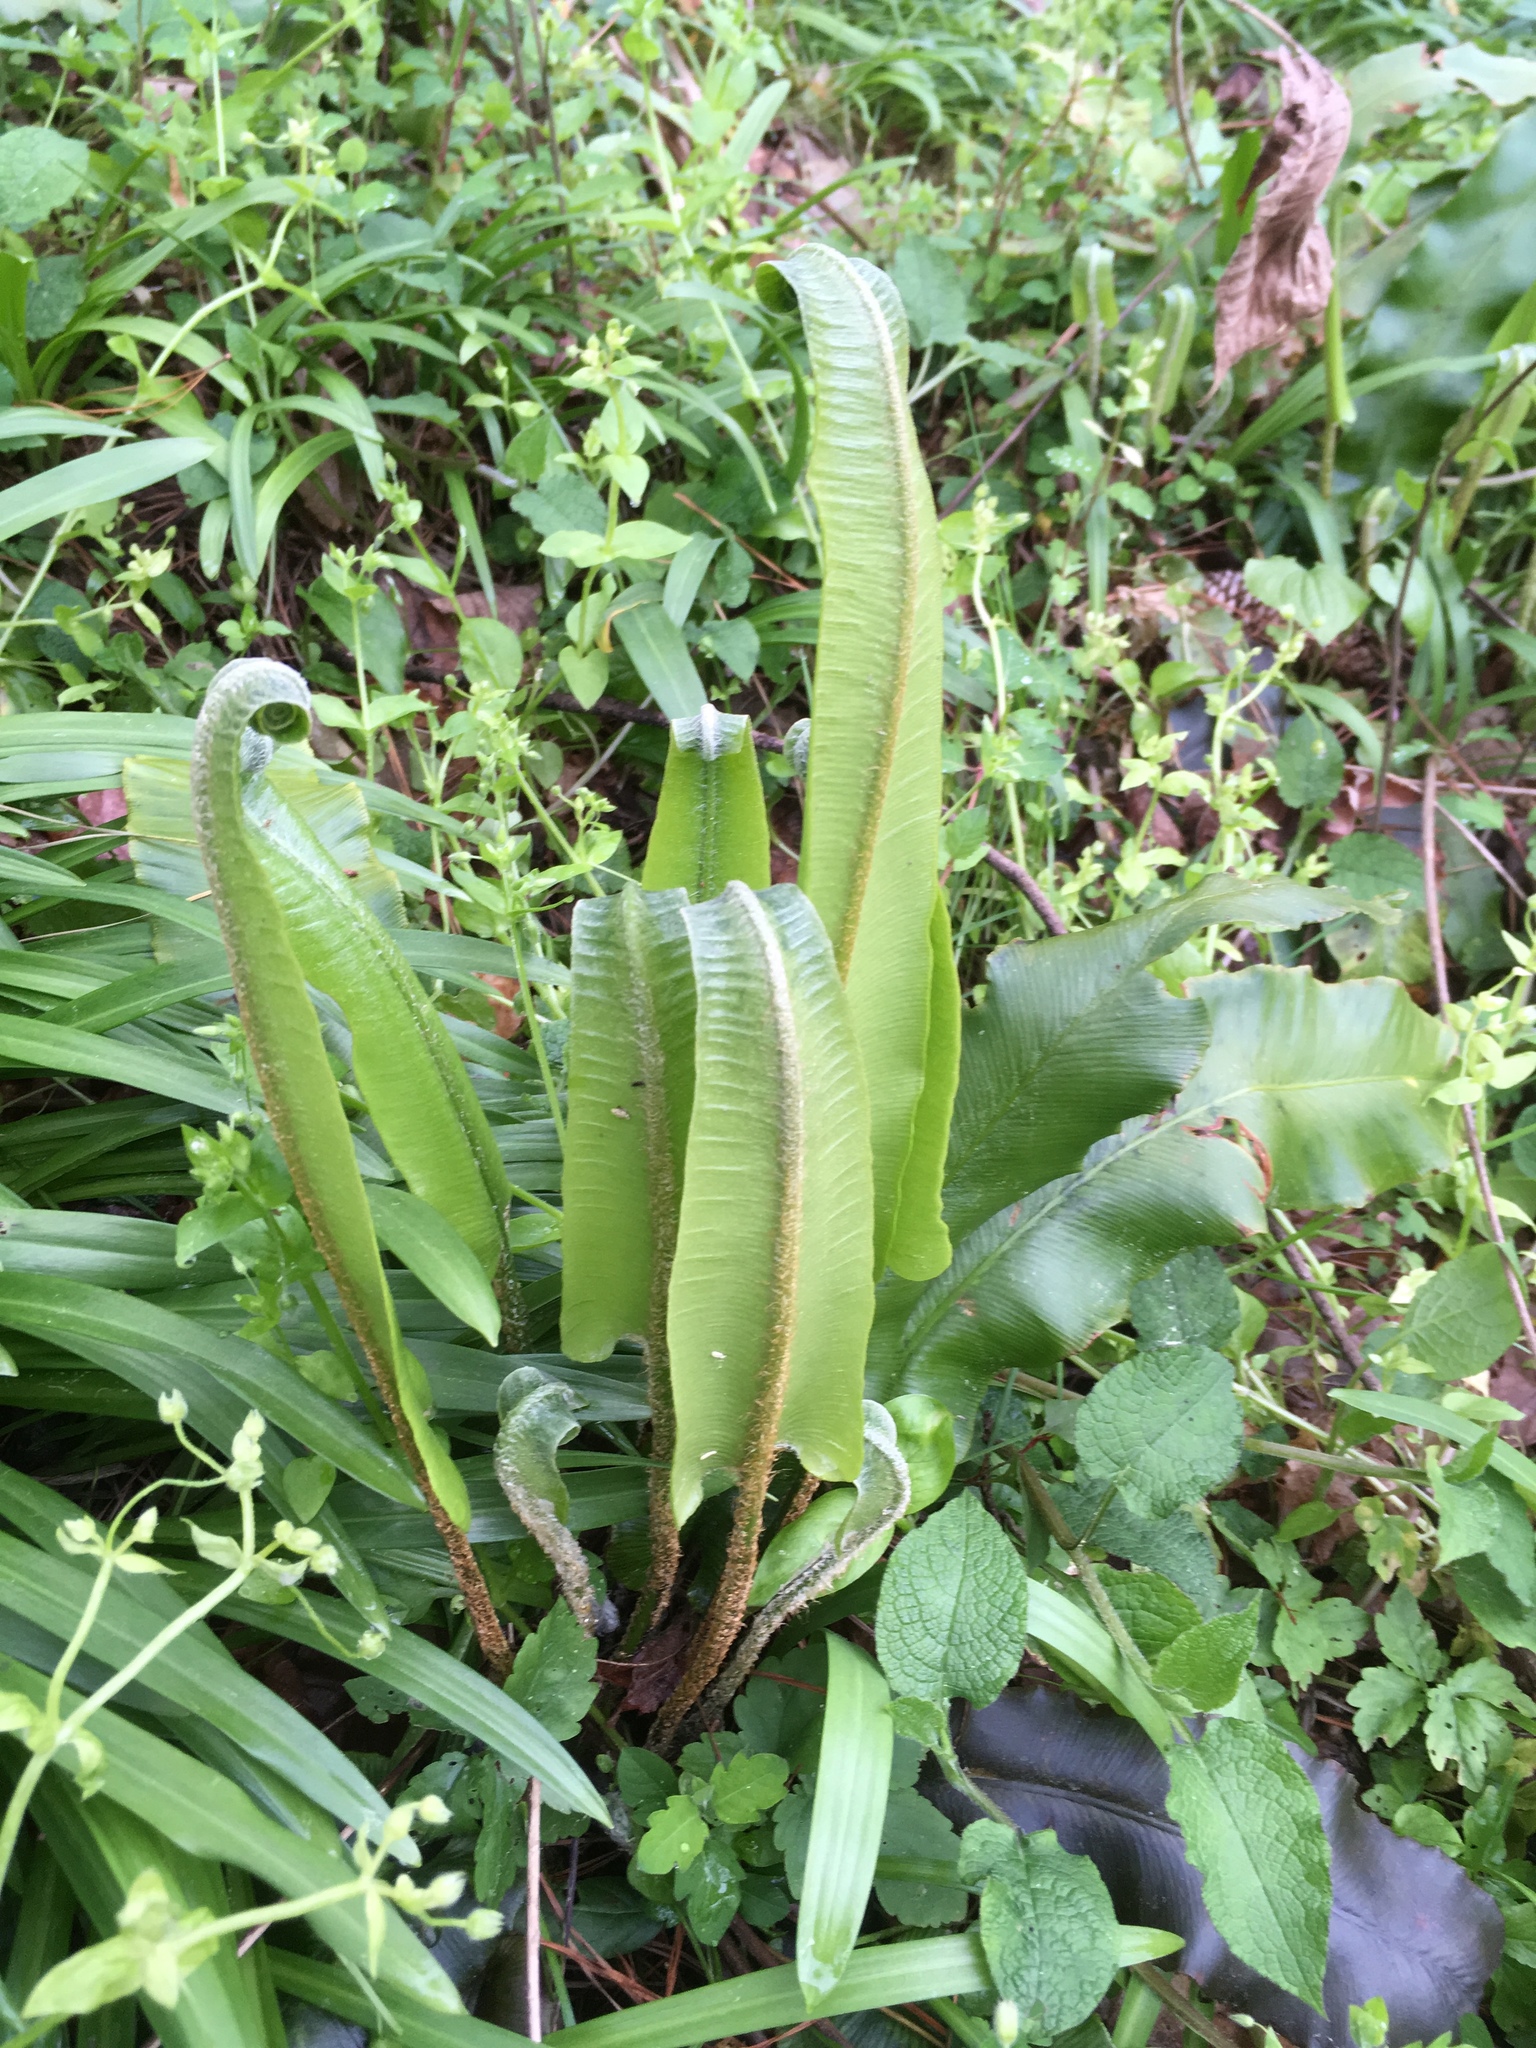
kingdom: Plantae
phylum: Tracheophyta
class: Polypodiopsida
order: Polypodiales
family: Aspleniaceae
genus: Asplenium
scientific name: Asplenium scolopendrium
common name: Hart's-tongue fern
